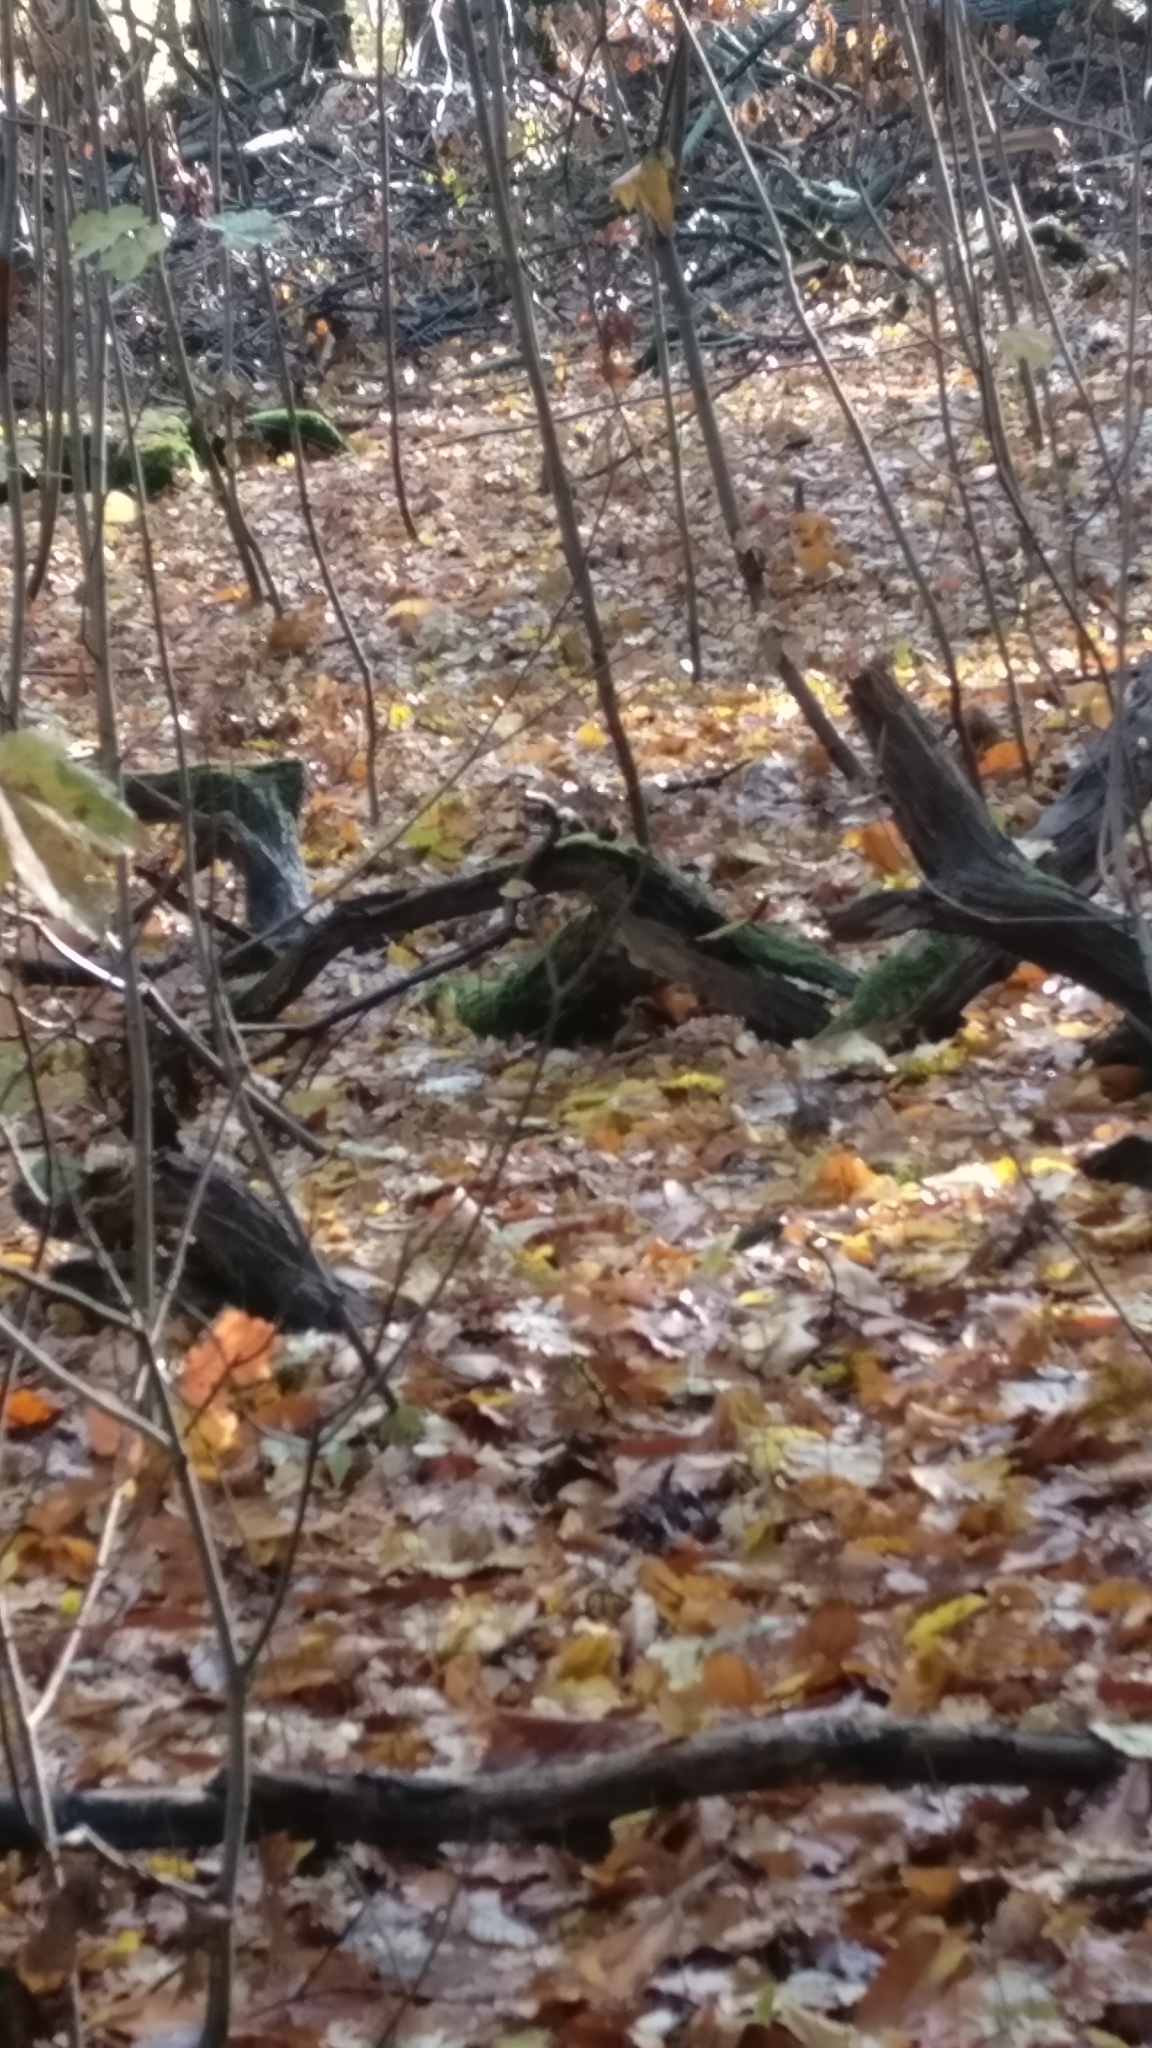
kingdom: Animalia
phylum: Chordata
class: Aves
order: Passeriformes
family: Troglodytidae
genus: Troglodytes
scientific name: Troglodytes troglodytes
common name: Eurasian wren
